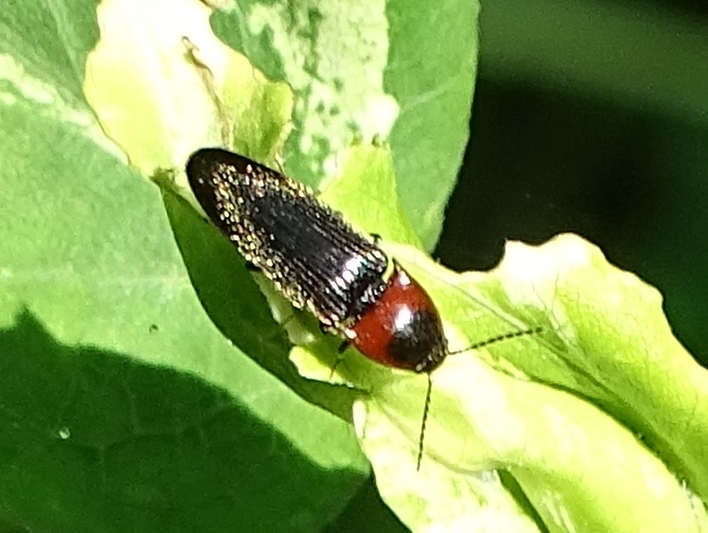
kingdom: Animalia
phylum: Arthropoda
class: Insecta
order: Coleoptera
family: Elateridae
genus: Ampedus
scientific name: Ampedus rubricus
